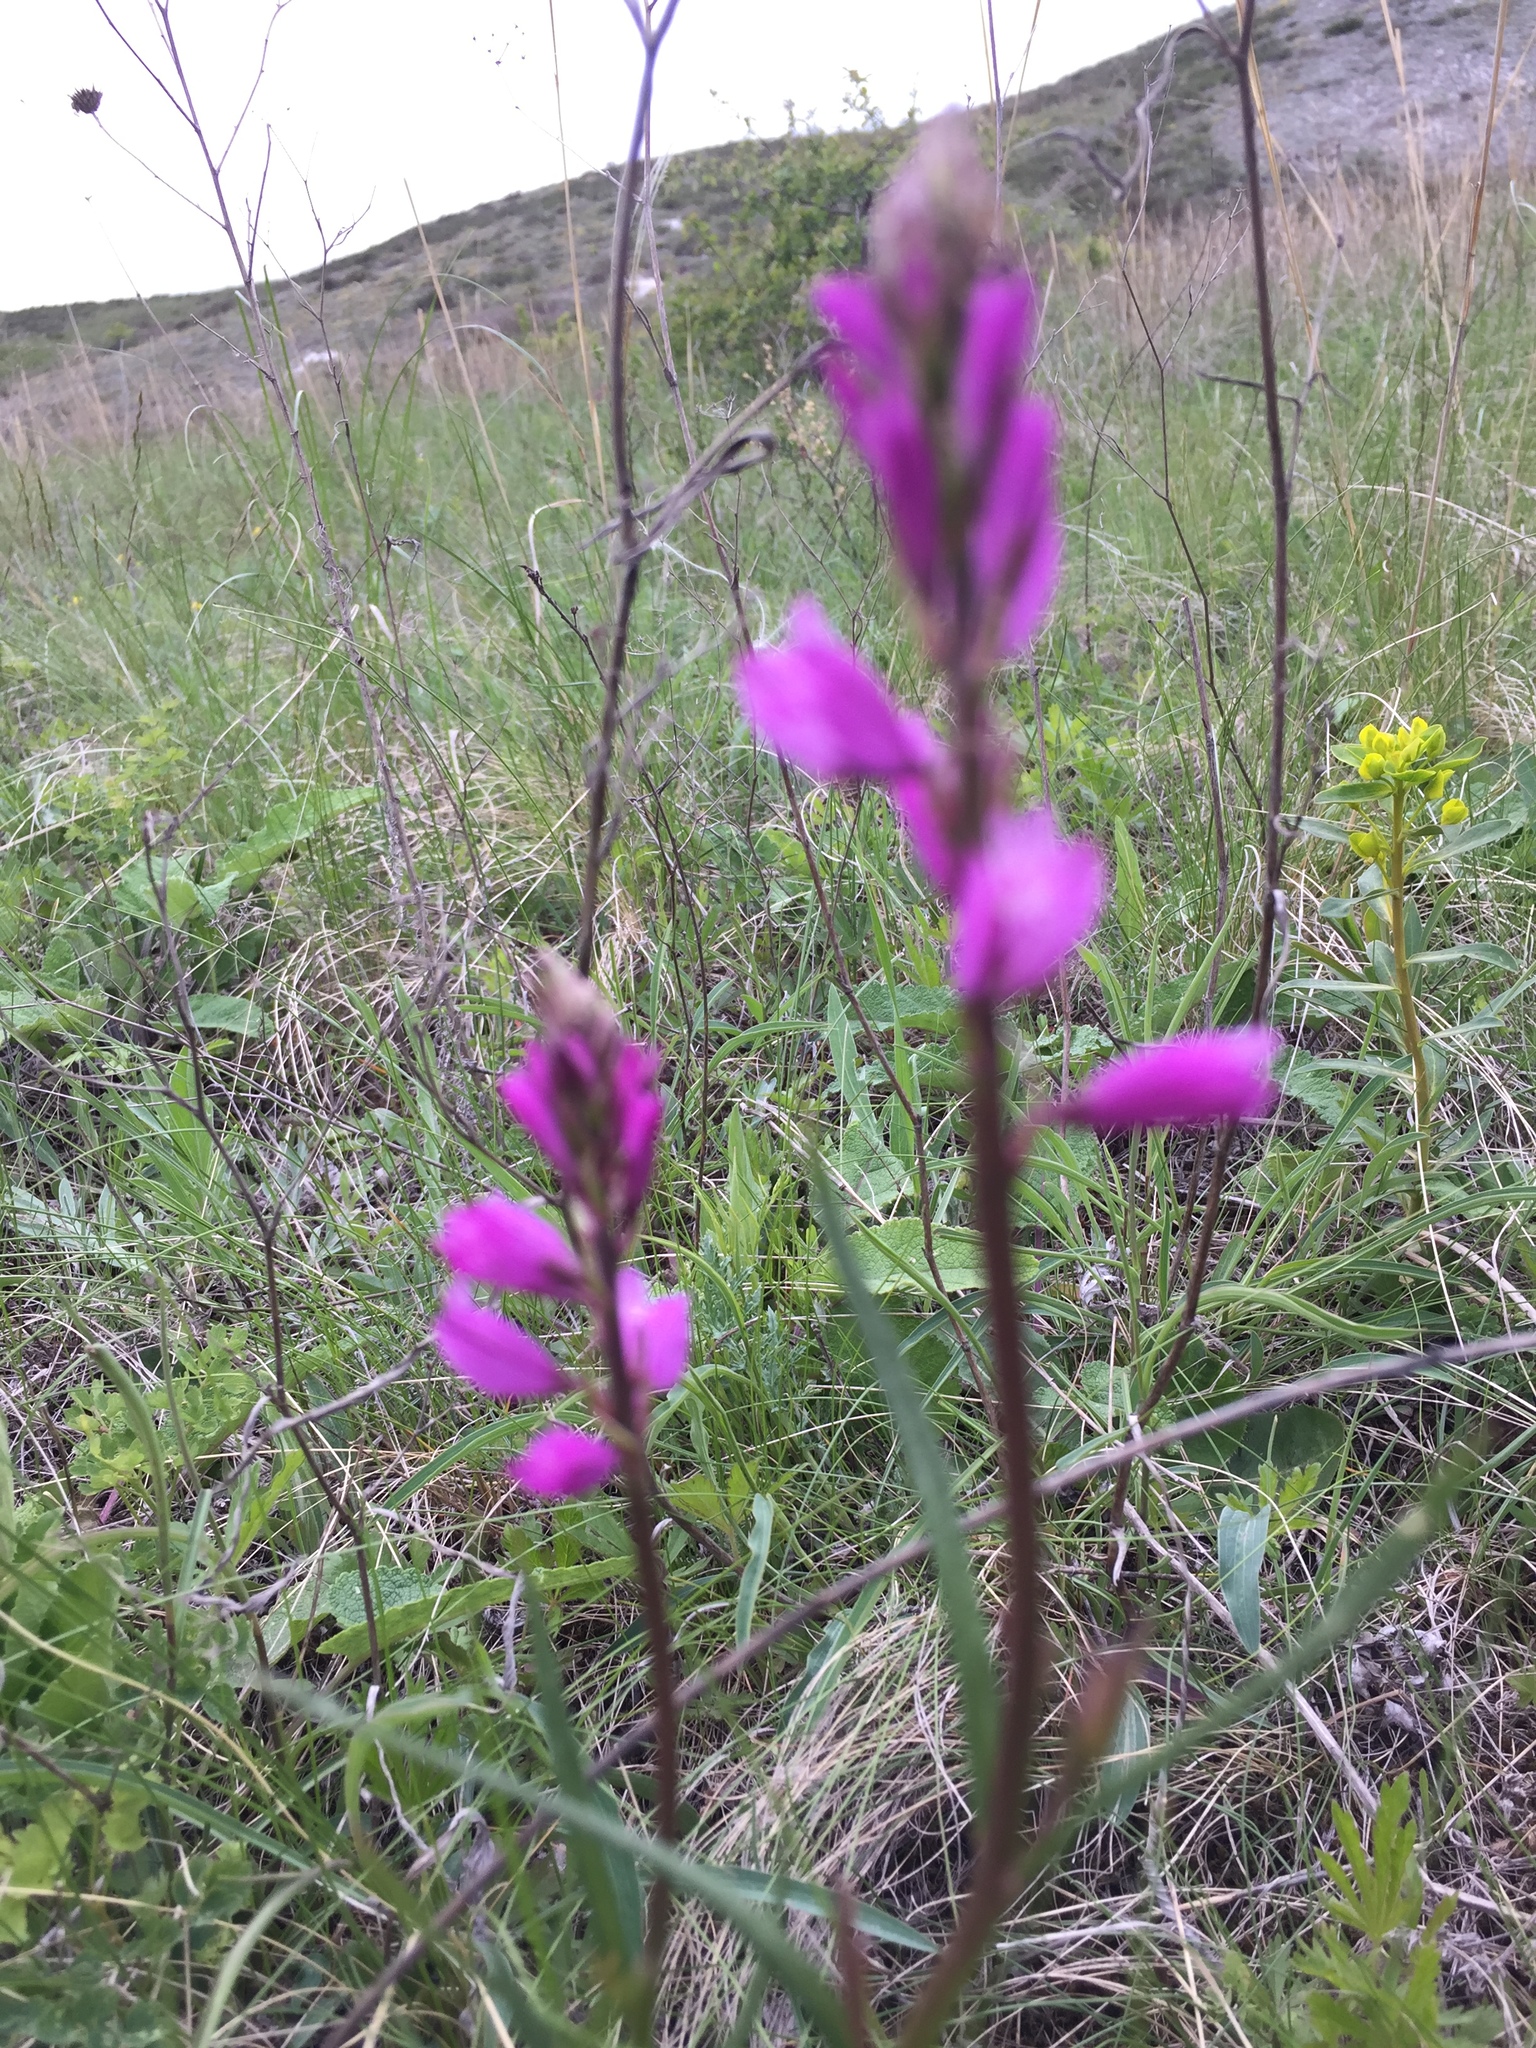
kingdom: Plantae
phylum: Tracheophyta
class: Magnoliopsida
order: Fabales
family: Polygalaceae
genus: Polygala
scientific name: Polygala nicaeensis
